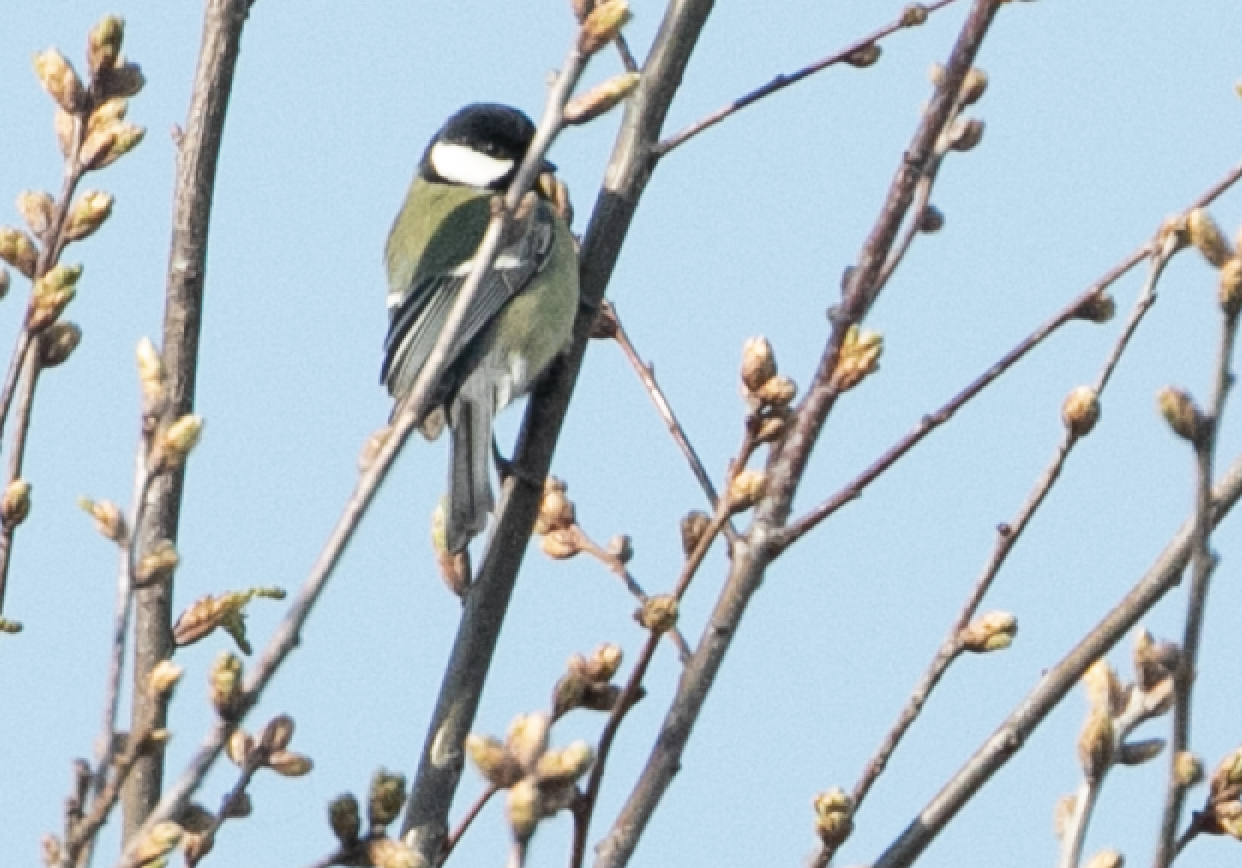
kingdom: Animalia
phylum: Chordata
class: Aves
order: Passeriformes
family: Paridae
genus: Parus
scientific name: Parus major
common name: Great tit
